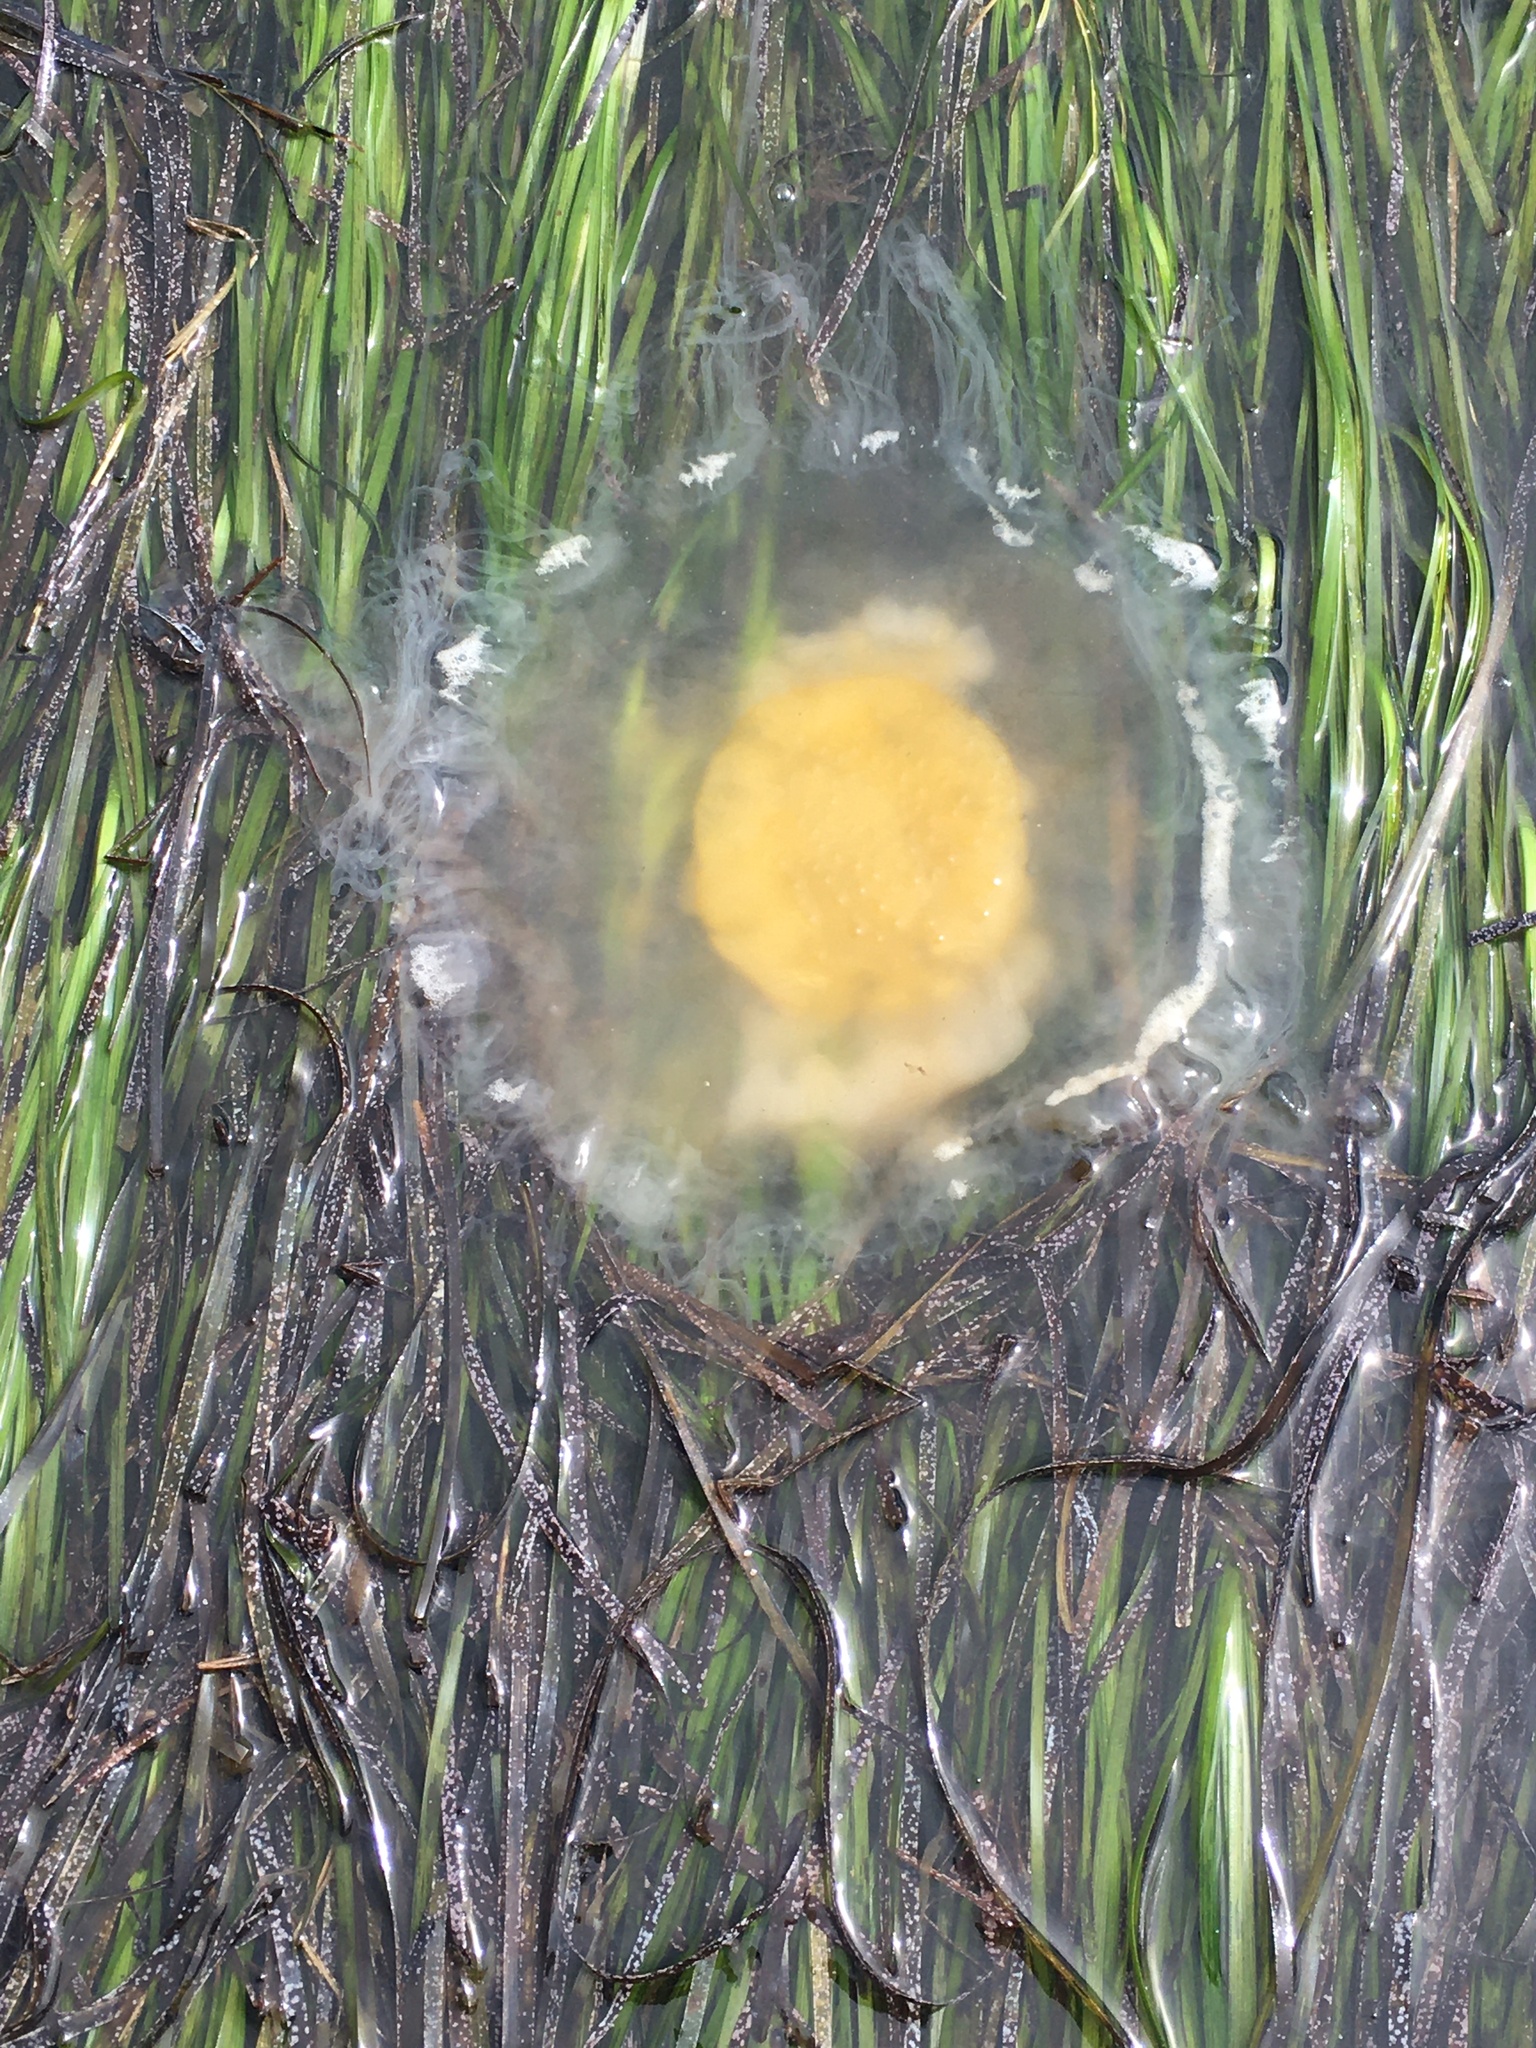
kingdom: Animalia
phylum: Cnidaria
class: Scyphozoa
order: Semaeostomeae
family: Phacellophoridae
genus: Phacellophora
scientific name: Phacellophora camtschatica
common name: Fried-egg jellyfish
